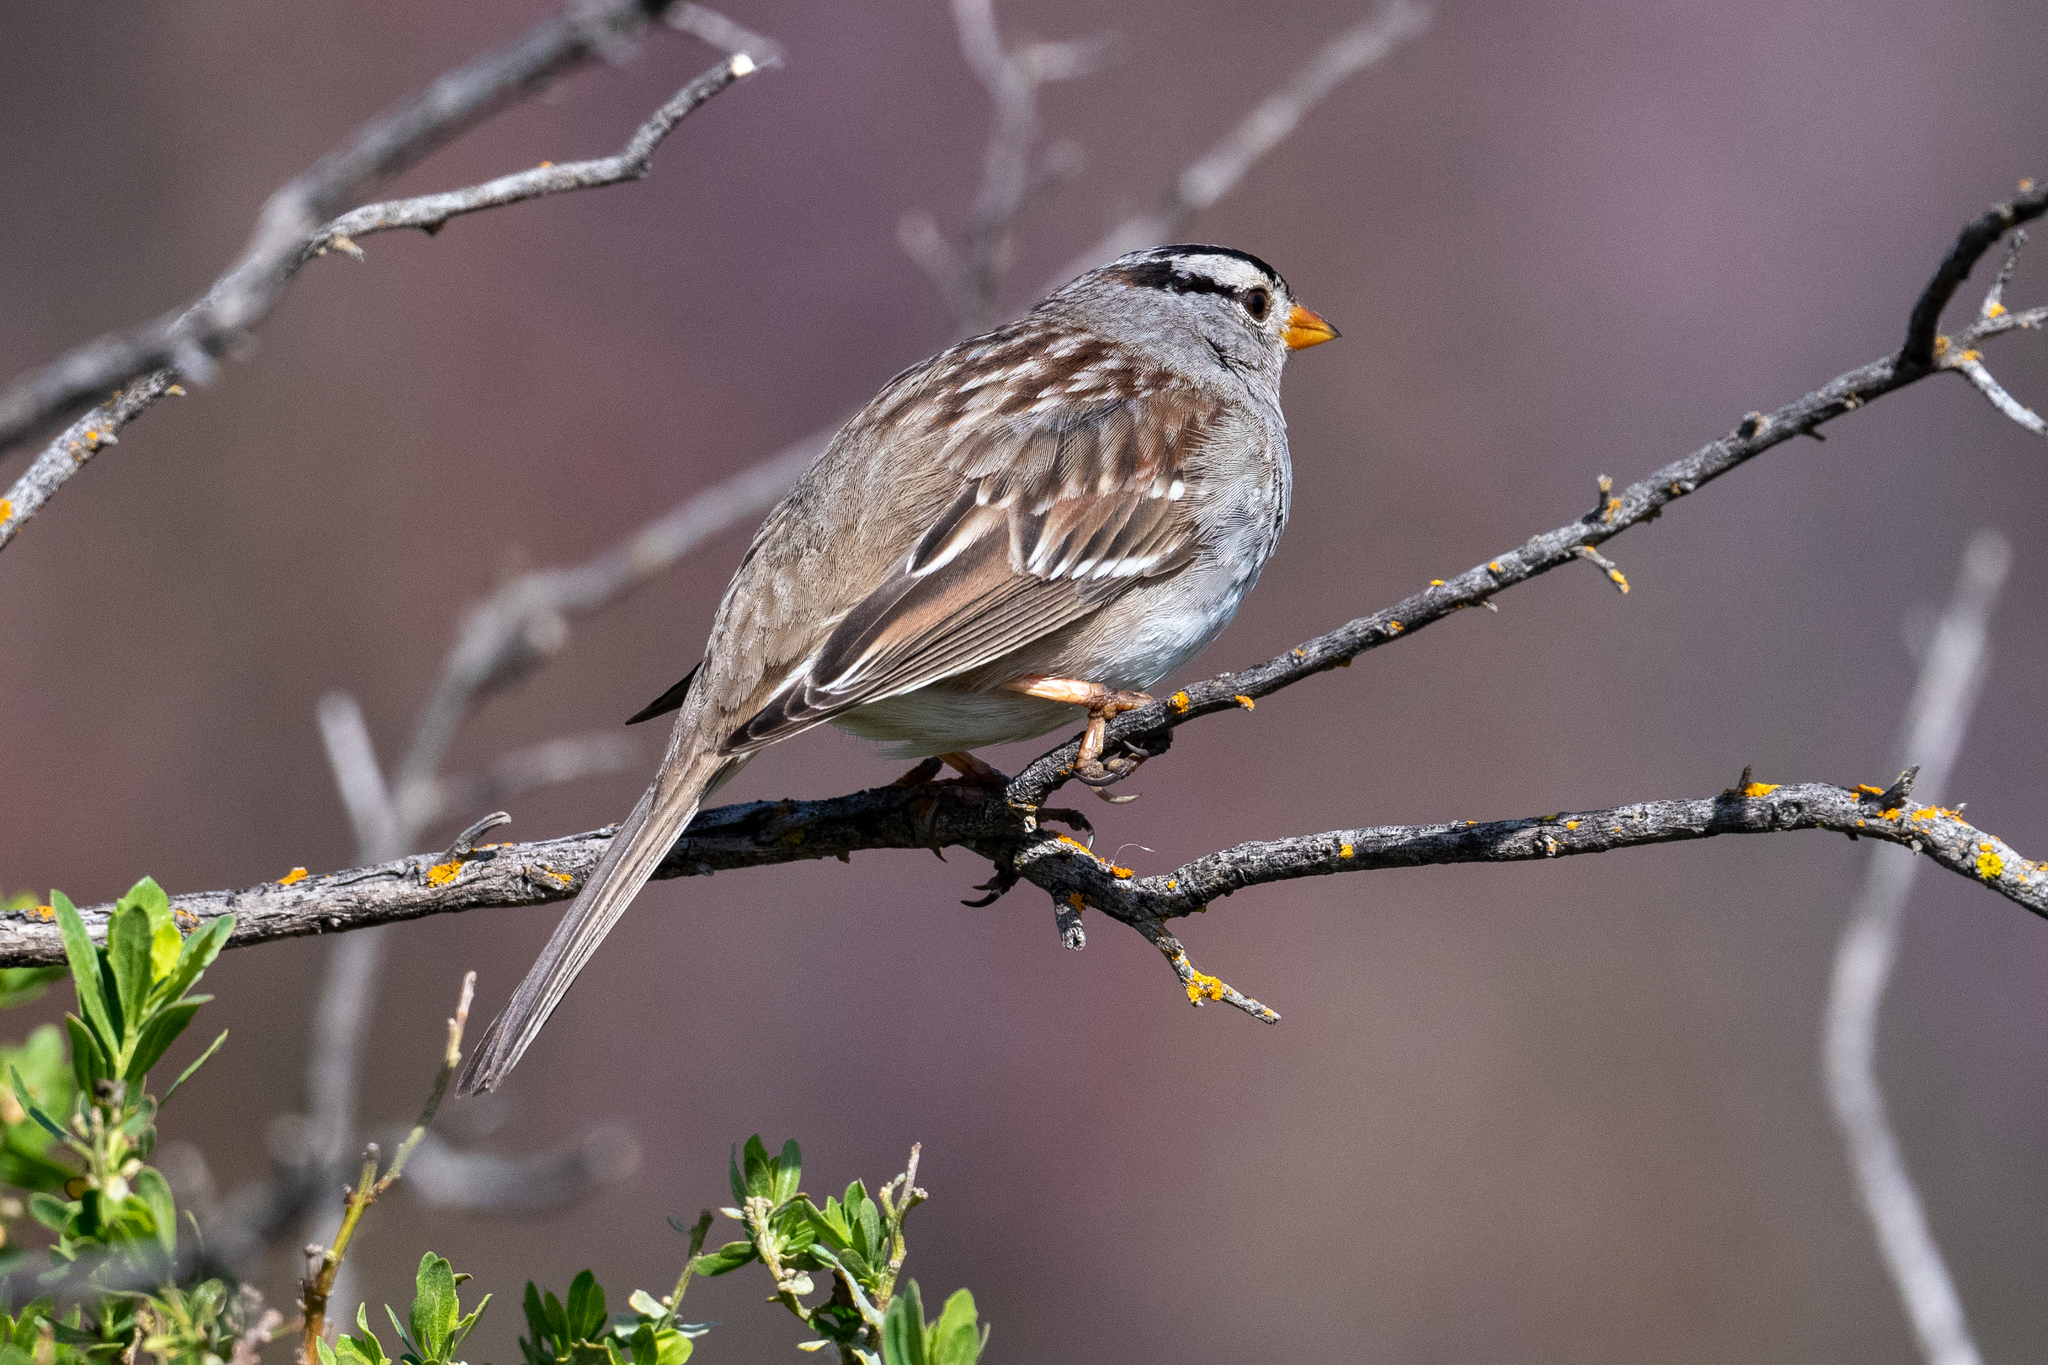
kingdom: Animalia
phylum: Chordata
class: Aves
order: Passeriformes
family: Passerellidae
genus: Zonotrichia
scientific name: Zonotrichia leucophrys
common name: White-crowned sparrow
